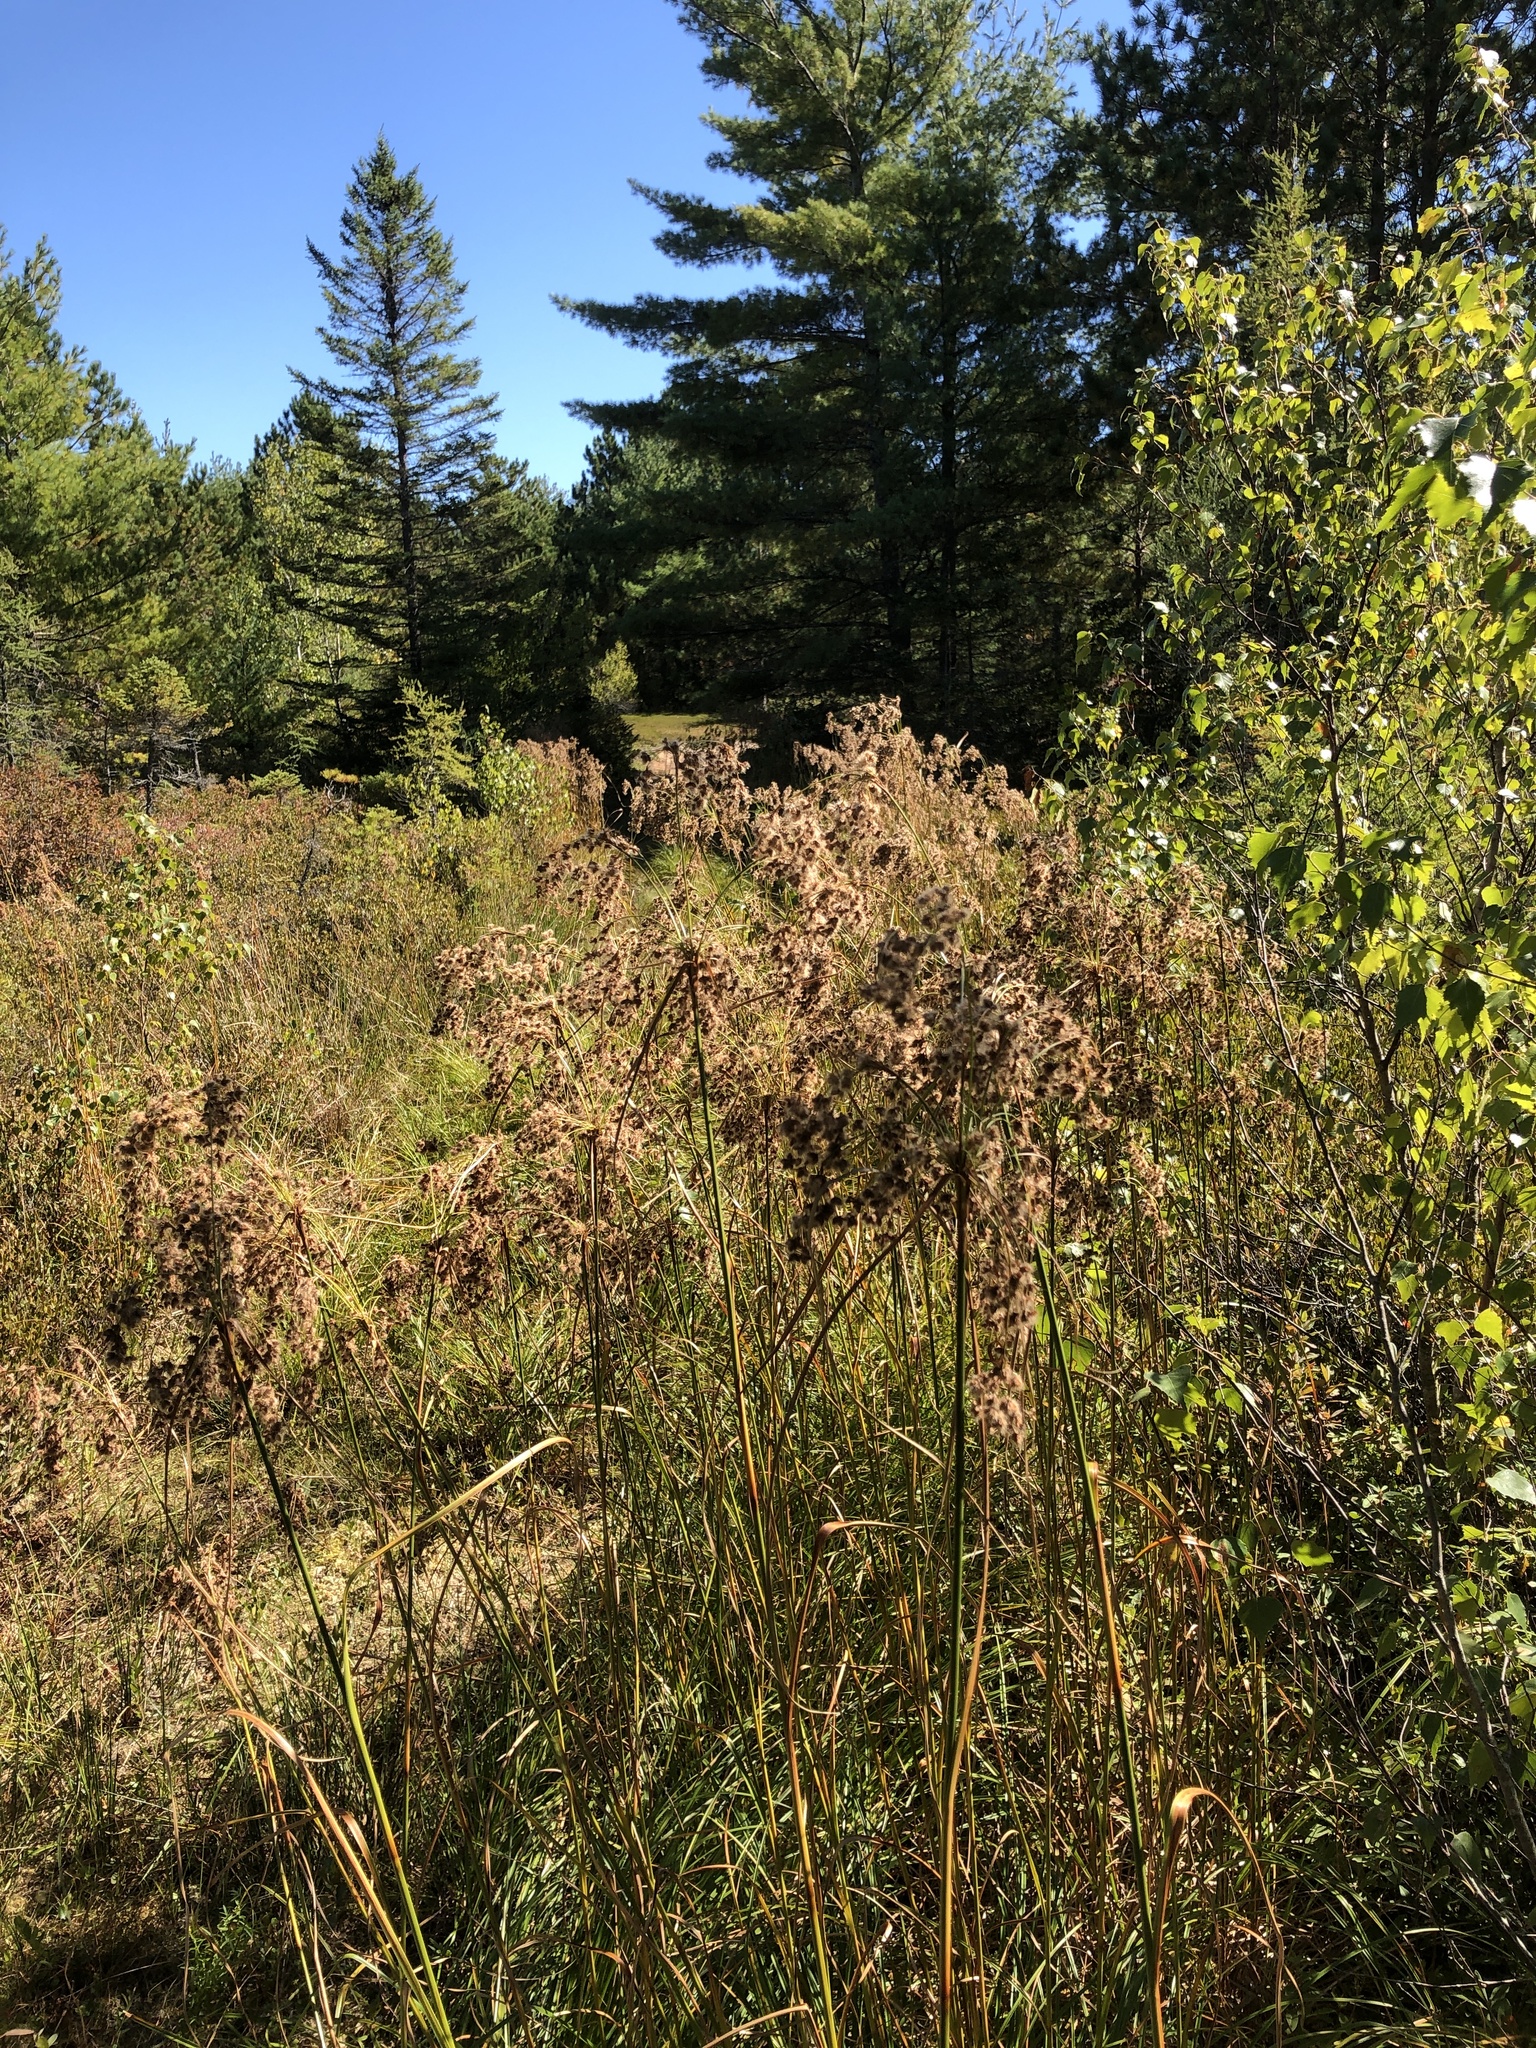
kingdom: Plantae
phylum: Tracheophyta
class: Liliopsida
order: Poales
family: Cyperaceae
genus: Scirpus
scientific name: Scirpus cyperinus
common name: Black-sheathed bulrush
